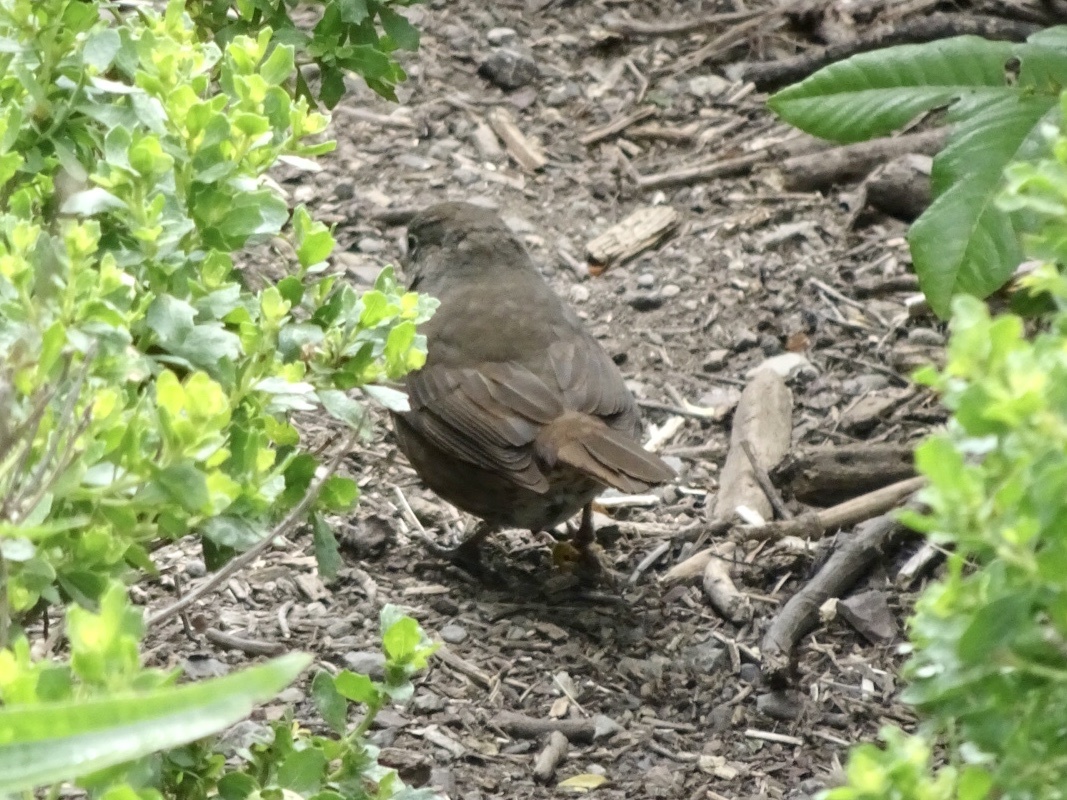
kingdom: Animalia
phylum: Chordata
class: Aves
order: Passeriformes
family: Passerellidae
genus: Passerella
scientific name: Passerella iliaca
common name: Fox sparrow
